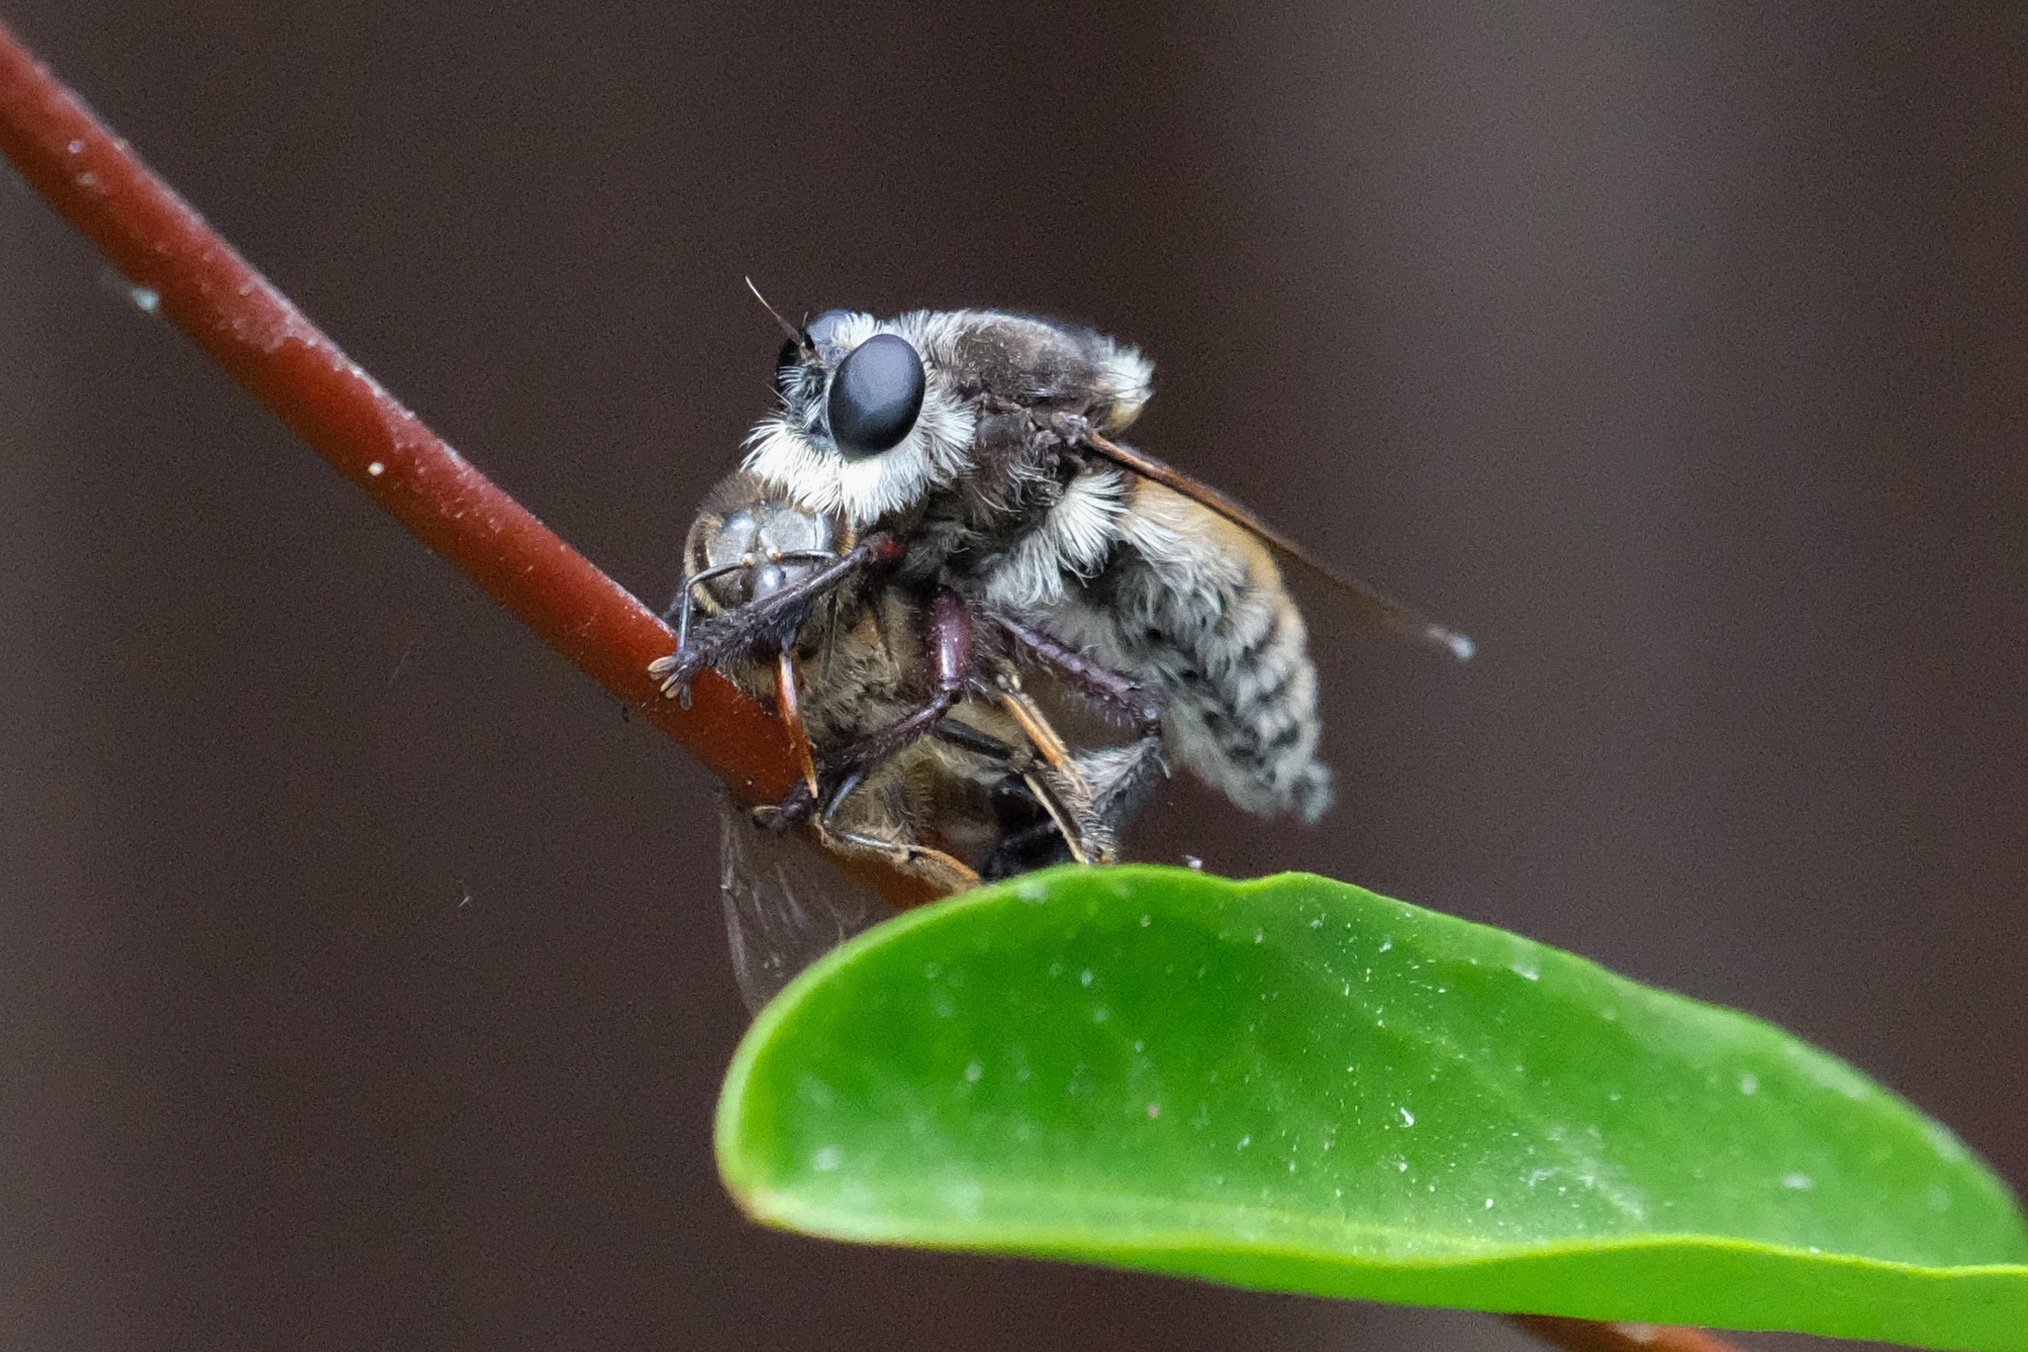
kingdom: Animalia
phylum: Arthropoda
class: Insecta
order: Diptera
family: Asilidae
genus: Mallophora
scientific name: Mallophora fautrix
